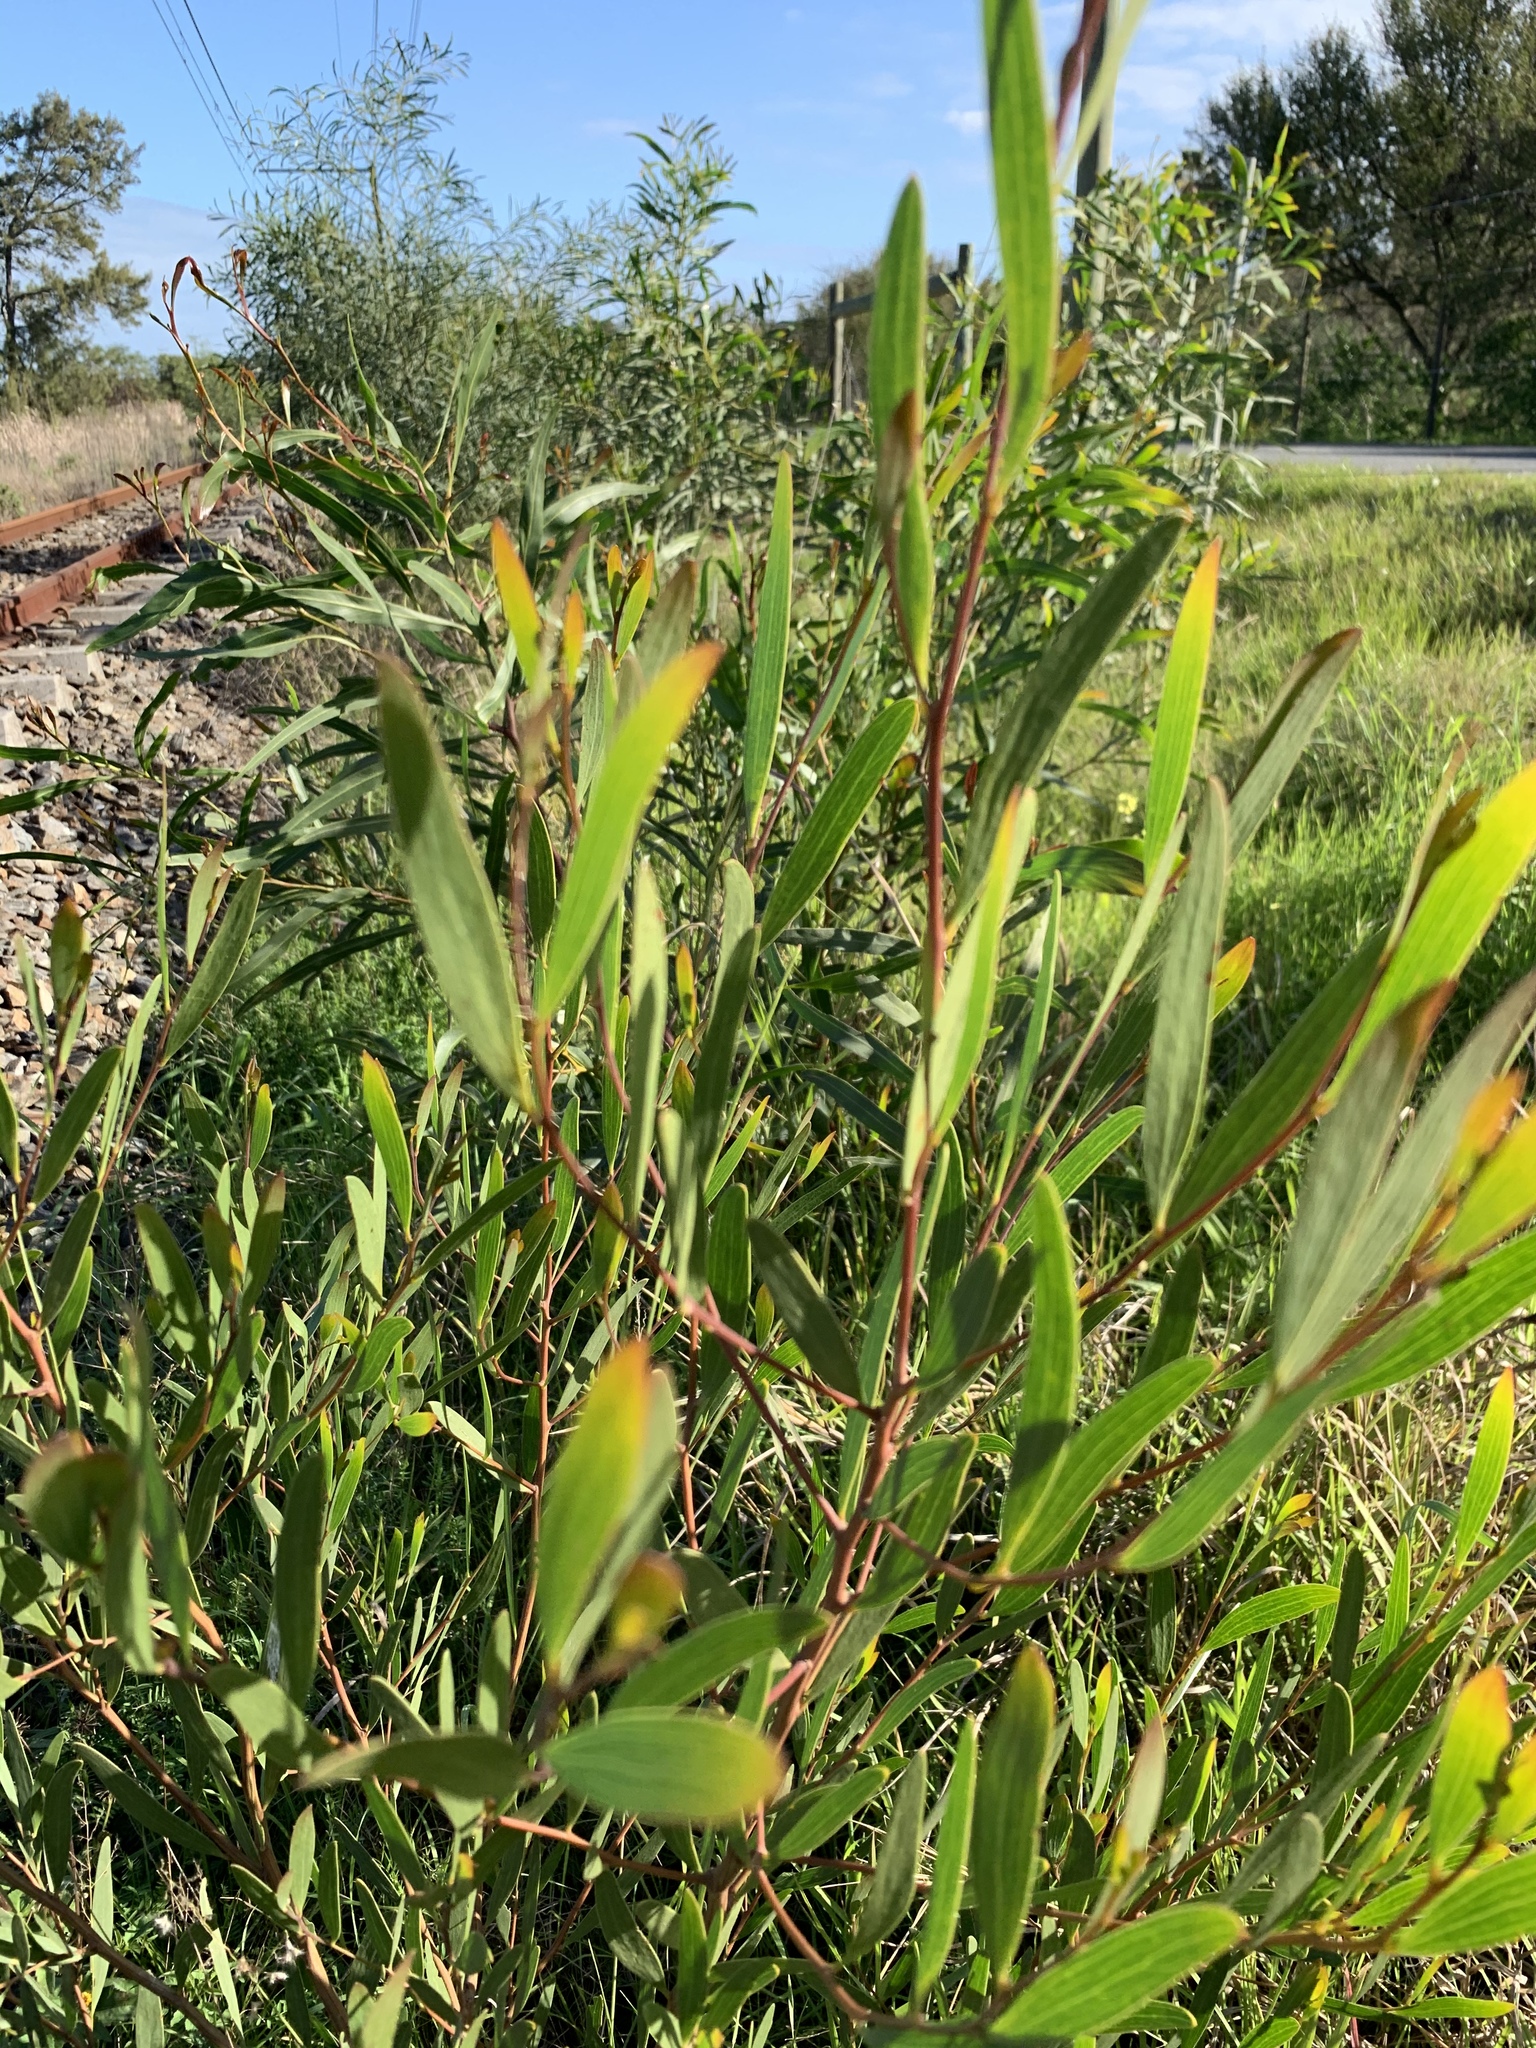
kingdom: Plantae
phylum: Tracheophyta
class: Magnoliopsida
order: Fabales
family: Fabaceae
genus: Acacia
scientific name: Acacia cyclops
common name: Coastal wattle
